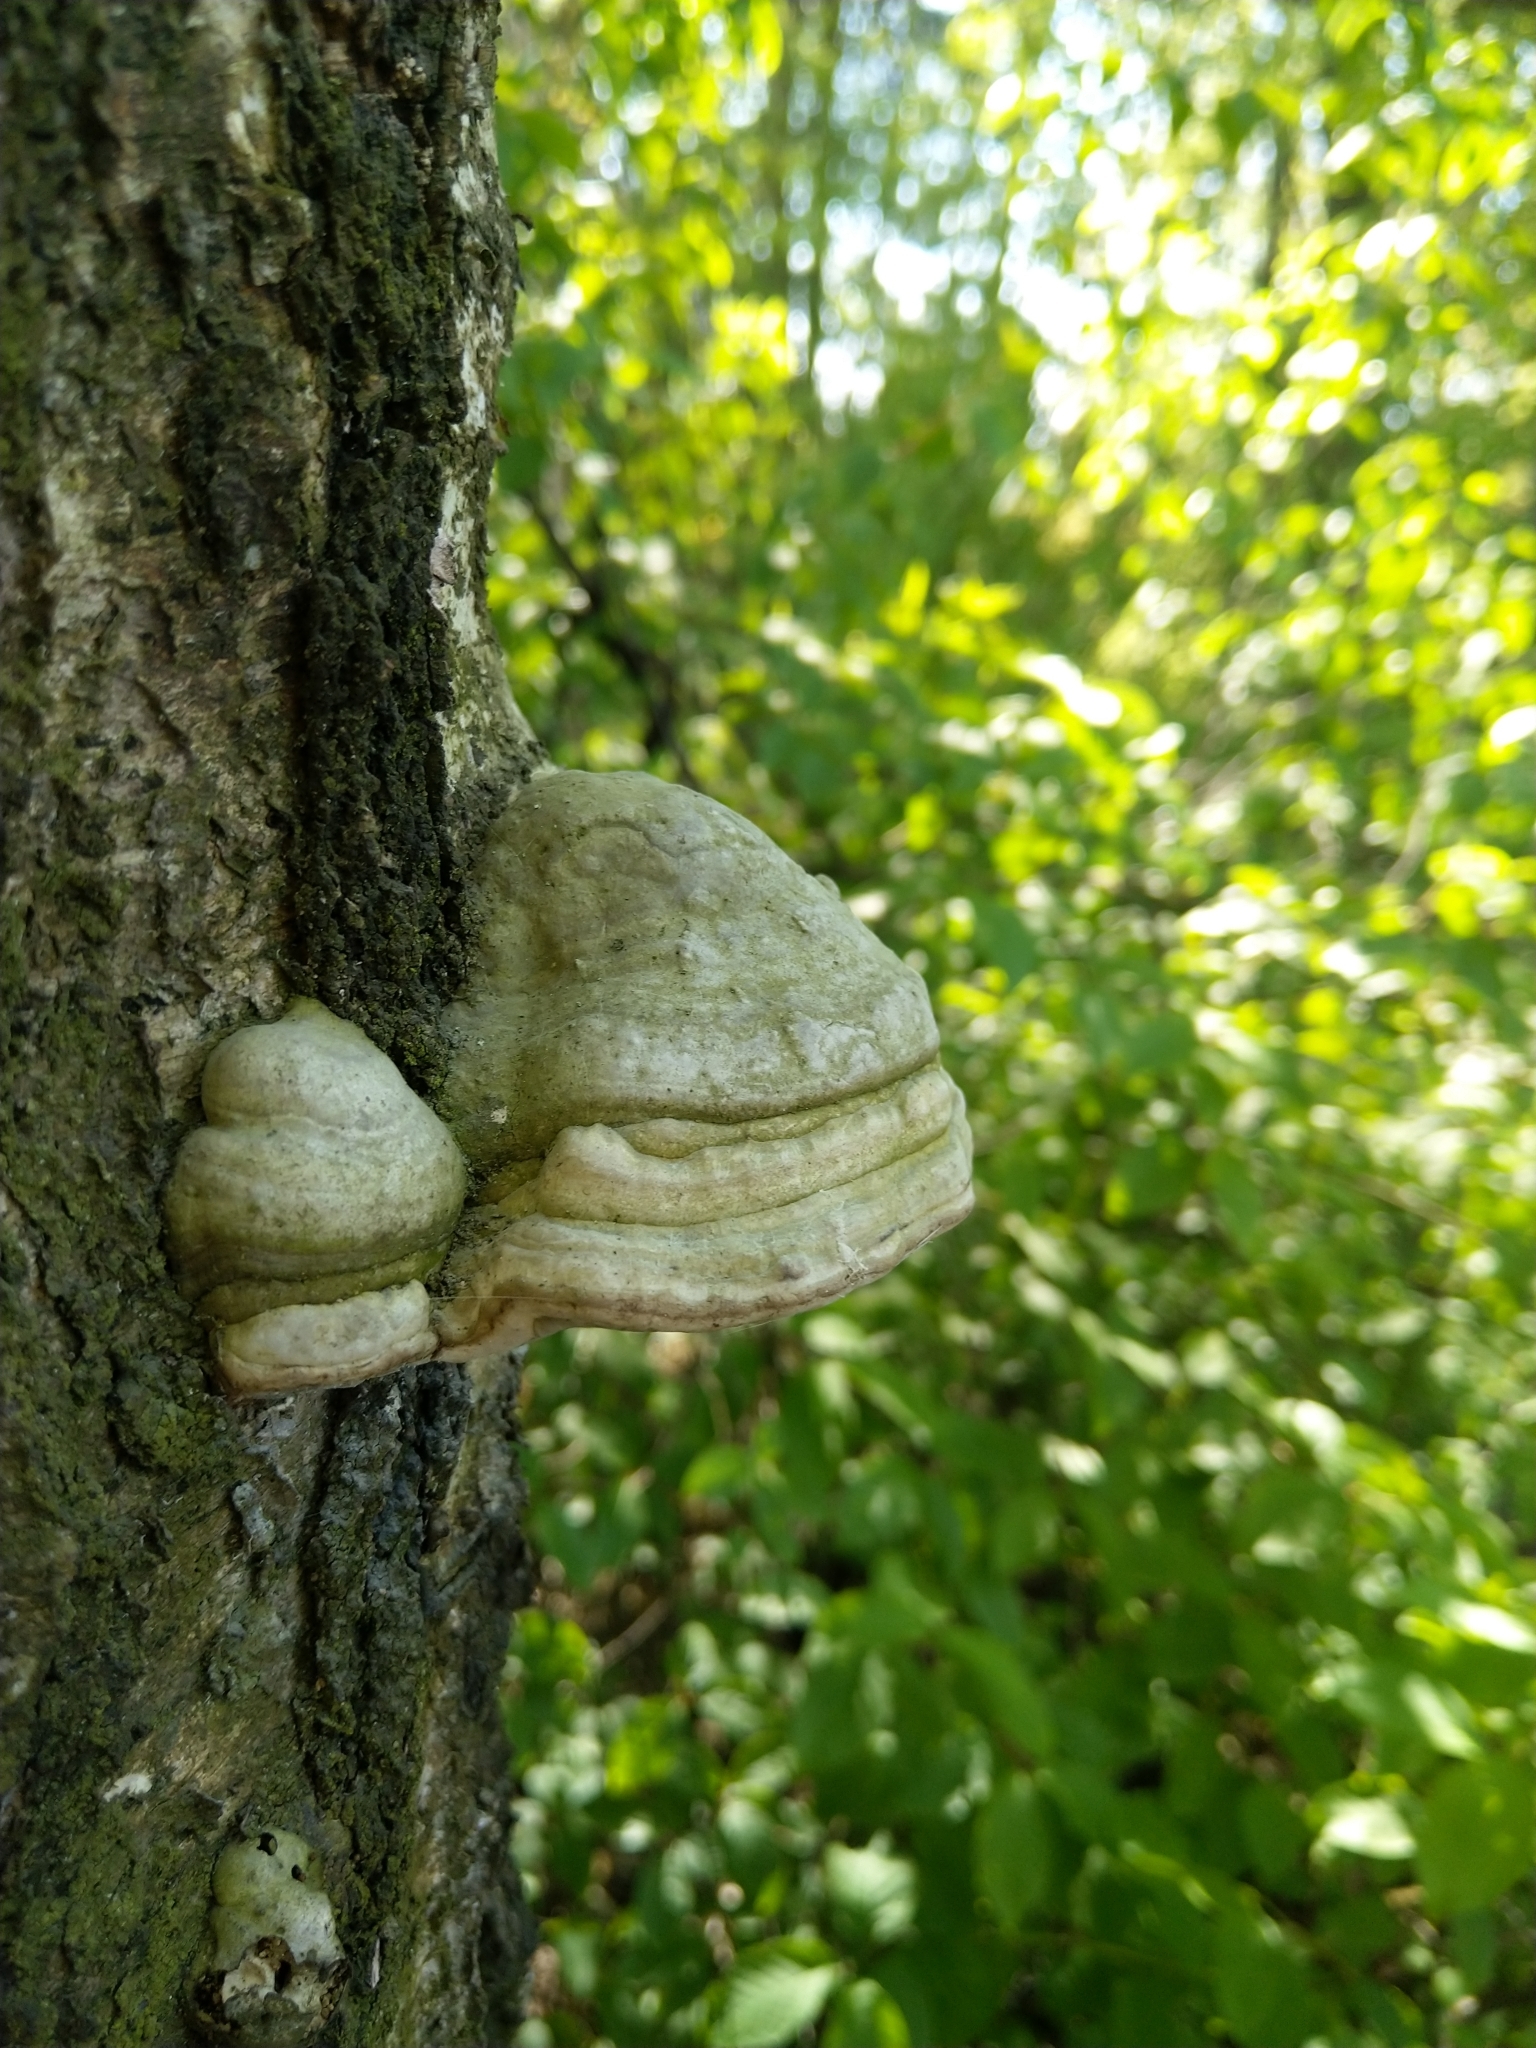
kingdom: Fungi
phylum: Basidiomycota
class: Agaricomycetes
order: Polyporales
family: Polyporaceae
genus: Fomes
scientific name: Fomes fomentarius
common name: Hoof fungus
